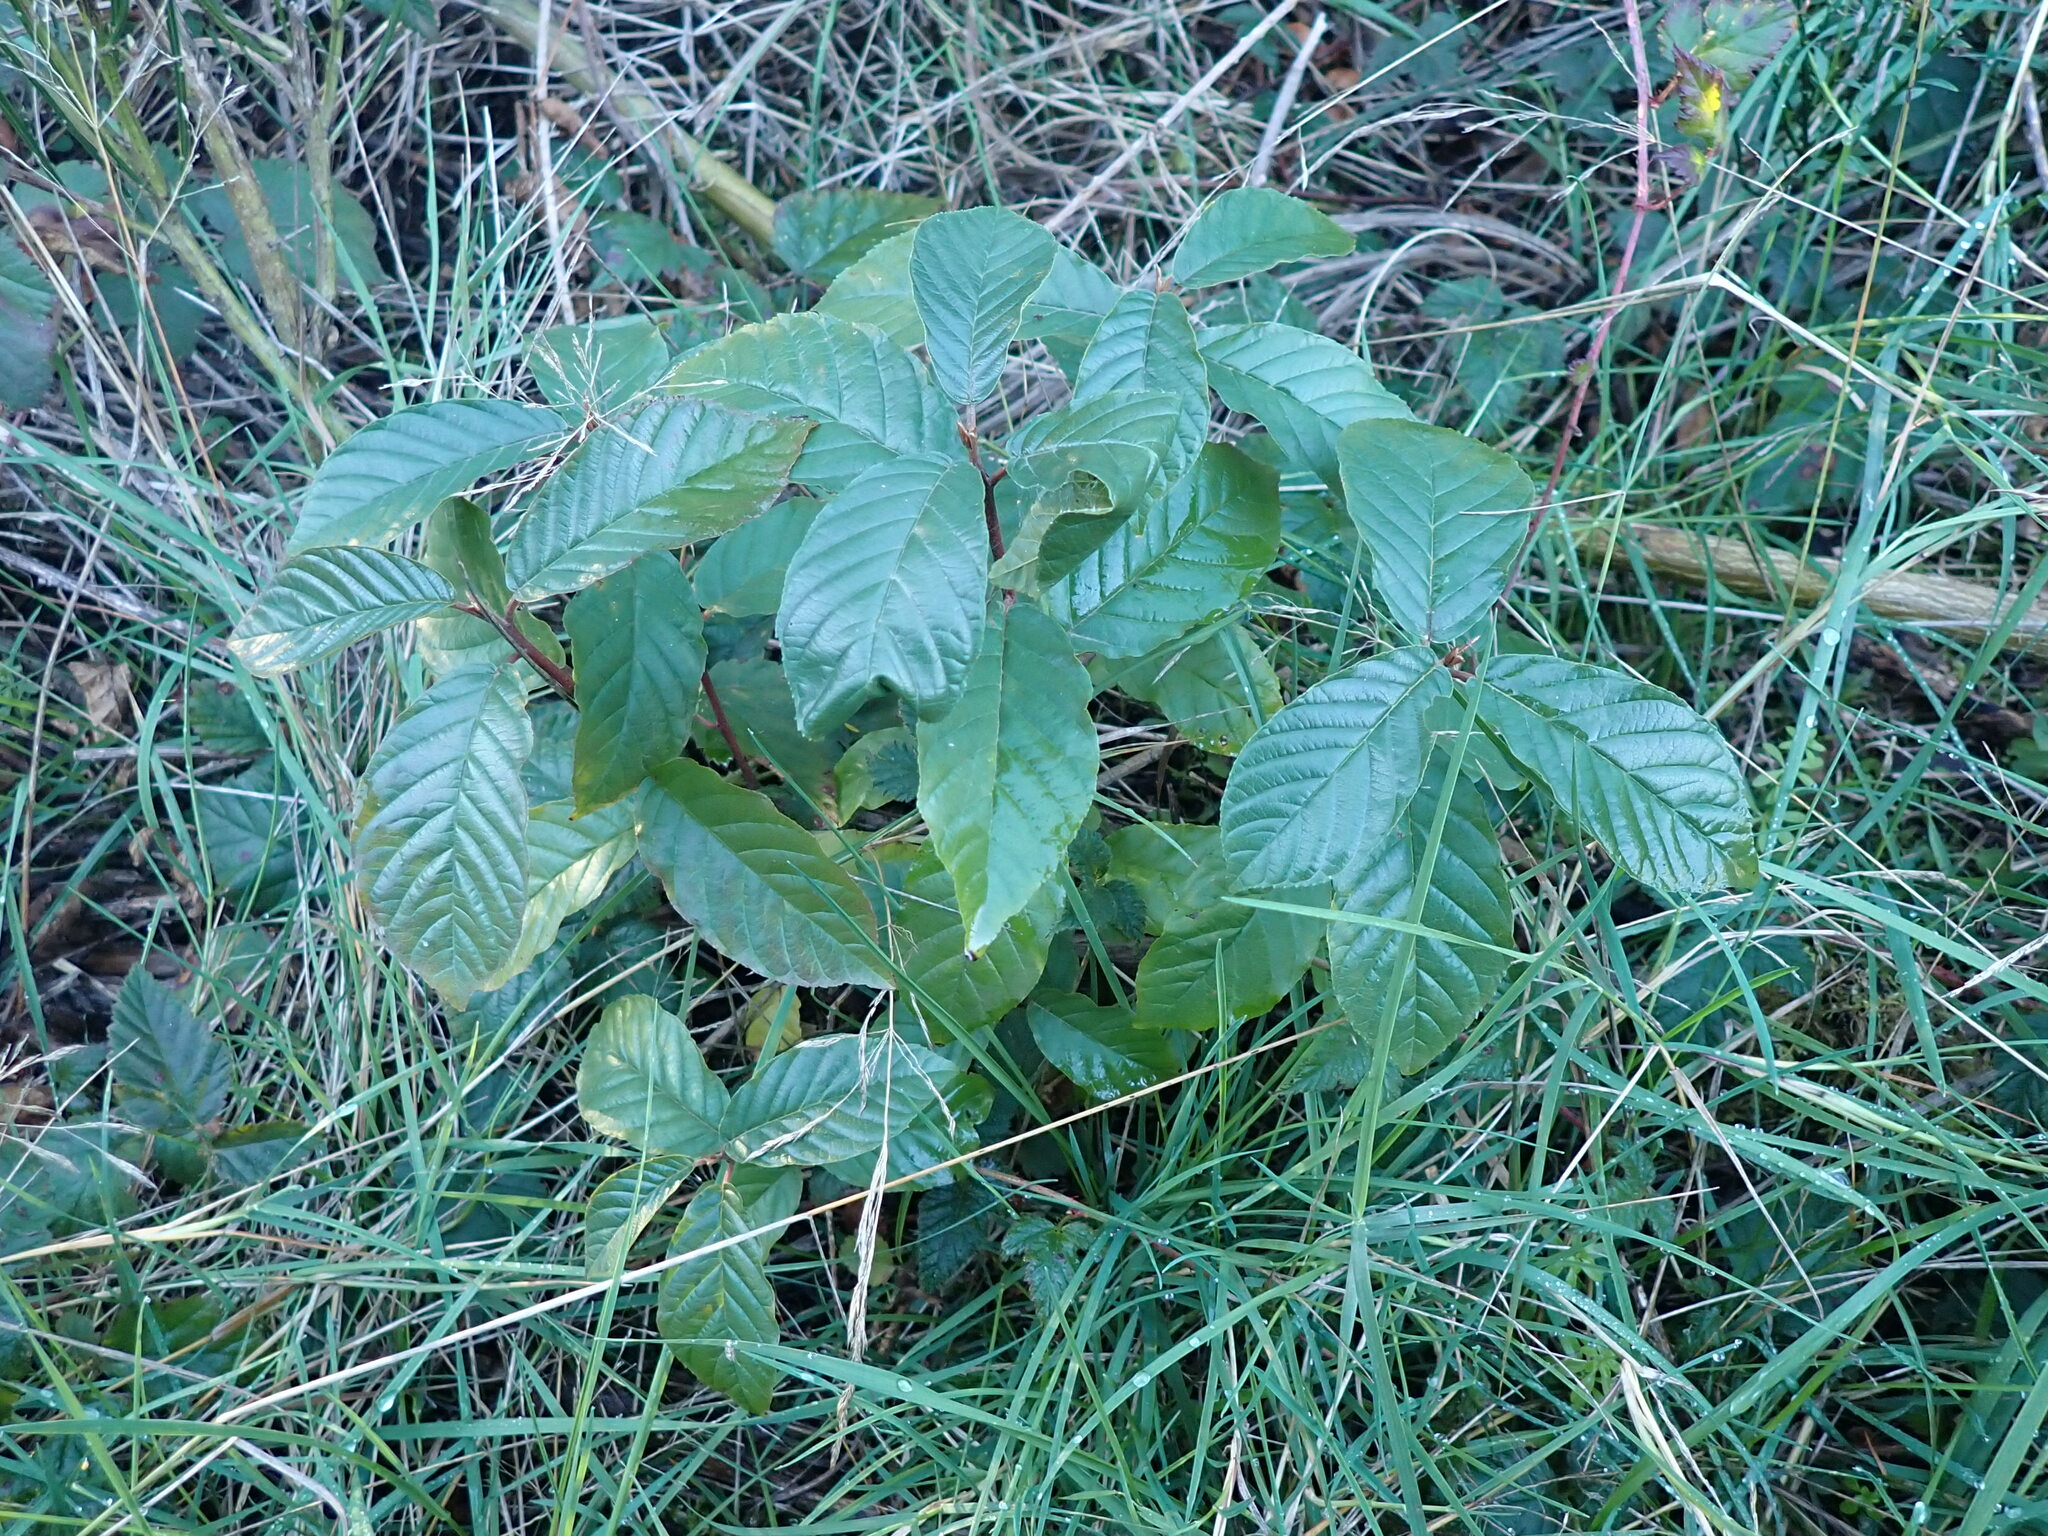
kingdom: Plantae
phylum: Tracheophyta
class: Magnoliopsida
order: Rosales
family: Rhamnaceae
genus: Frangula
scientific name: Frangula purshiana
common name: Cascara buckthorn
